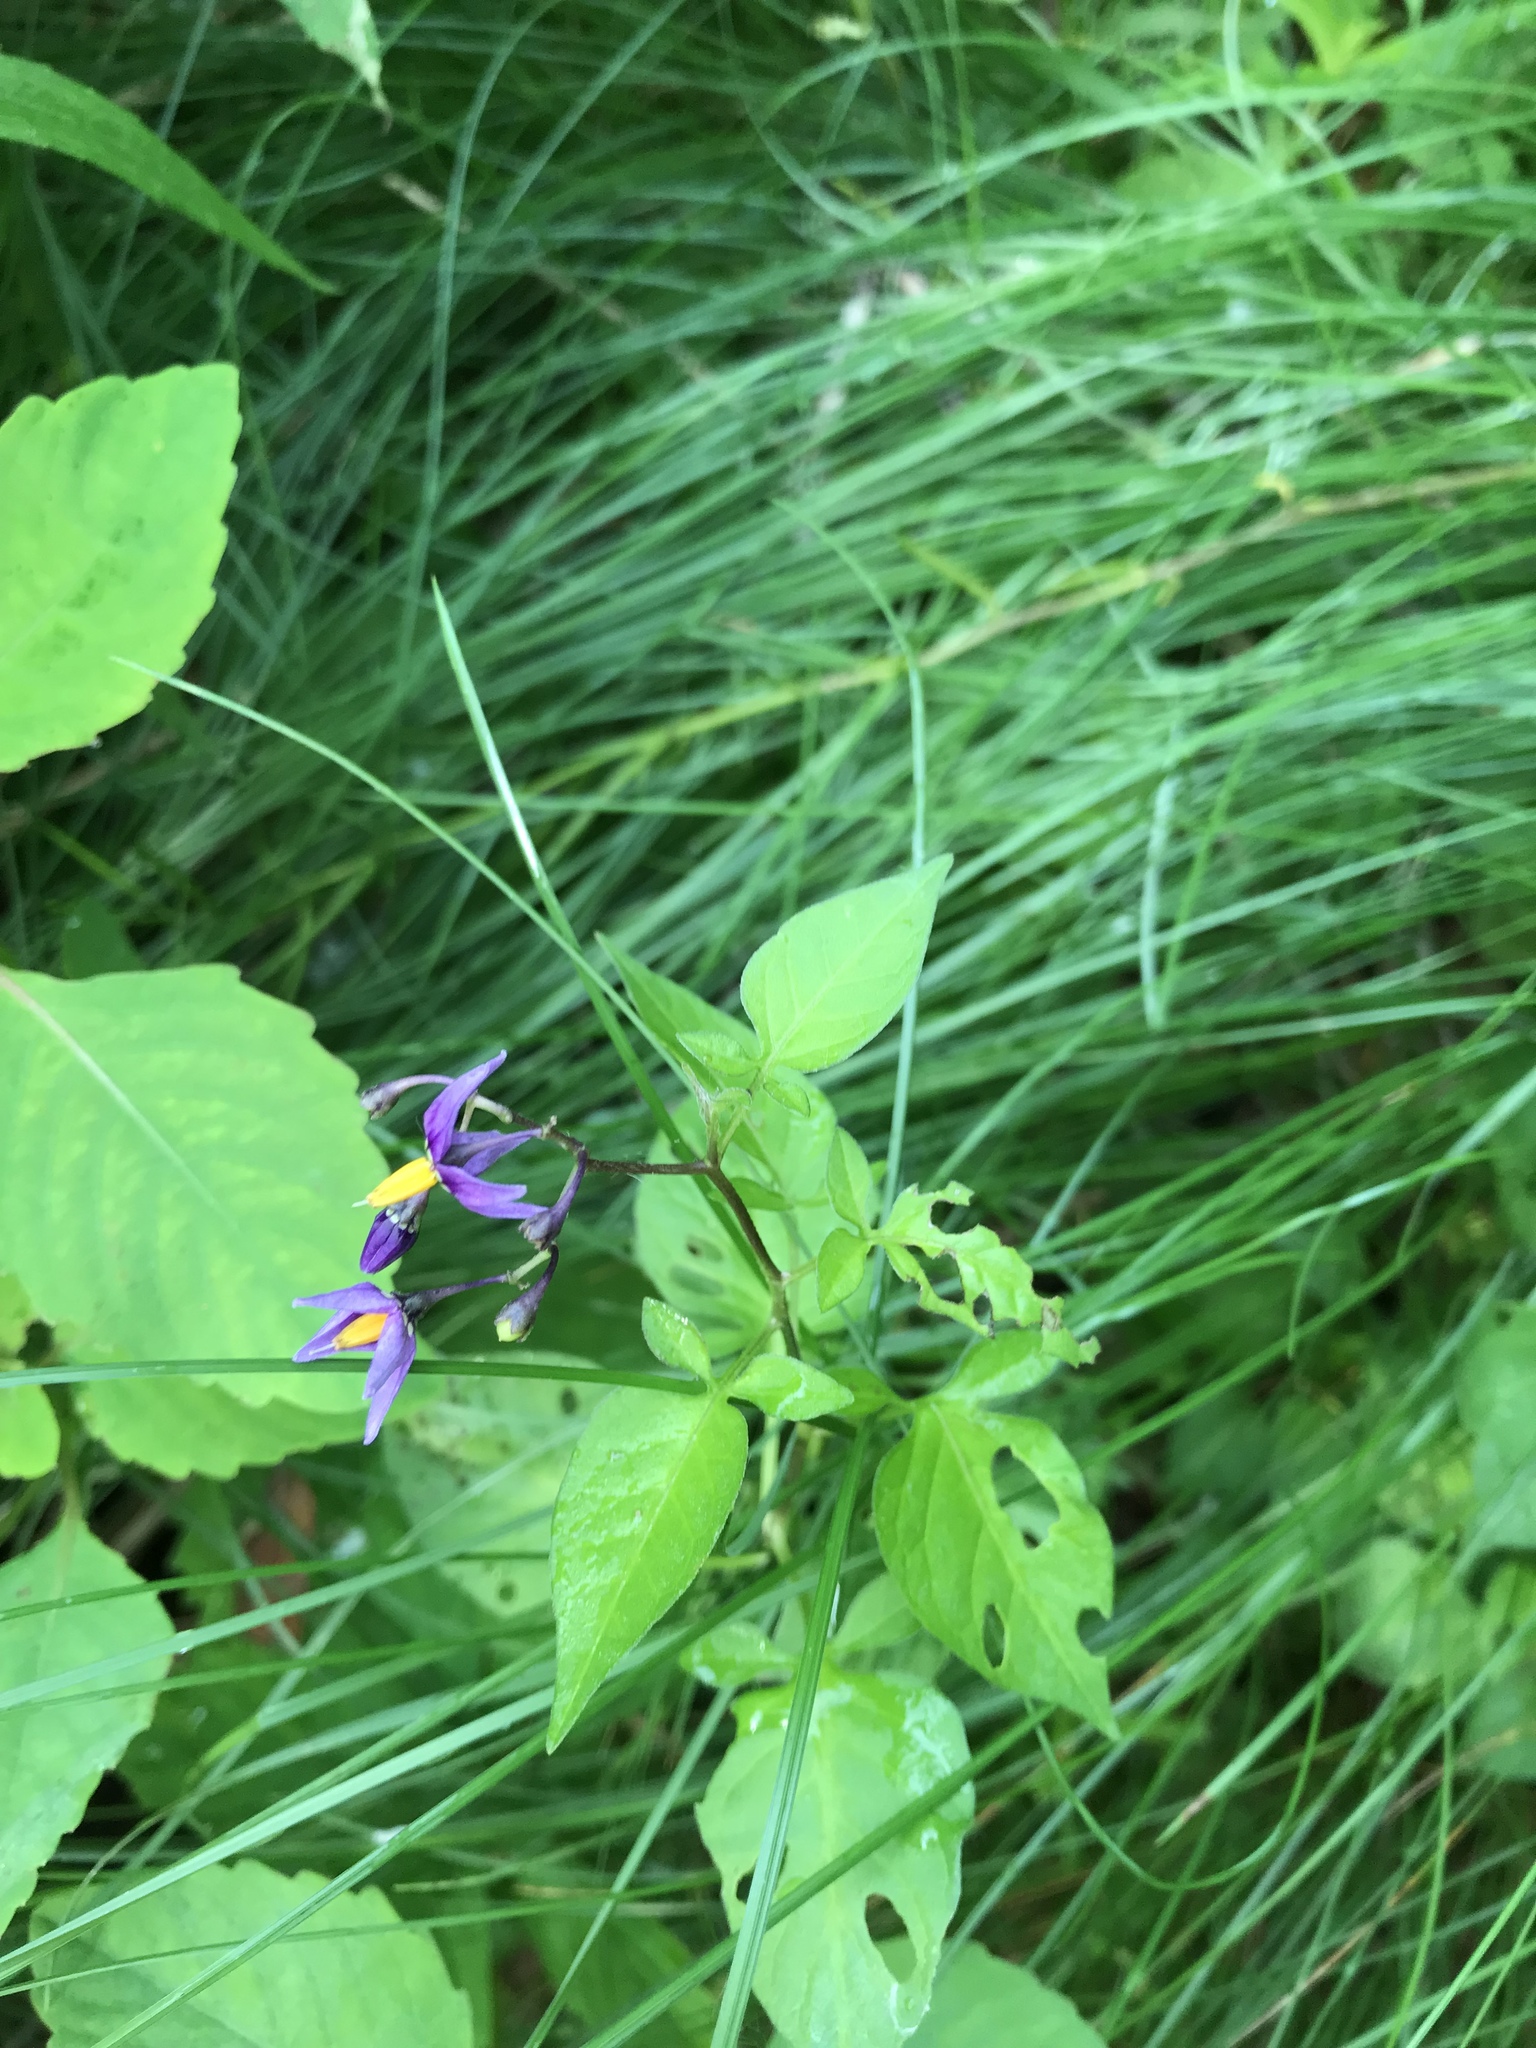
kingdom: Plantae
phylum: Tracheophyta
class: Magnoliopsida
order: Solanales
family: Solanaceae
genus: Solanum
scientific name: Solanum dulcamara
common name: Climbing nightshade
